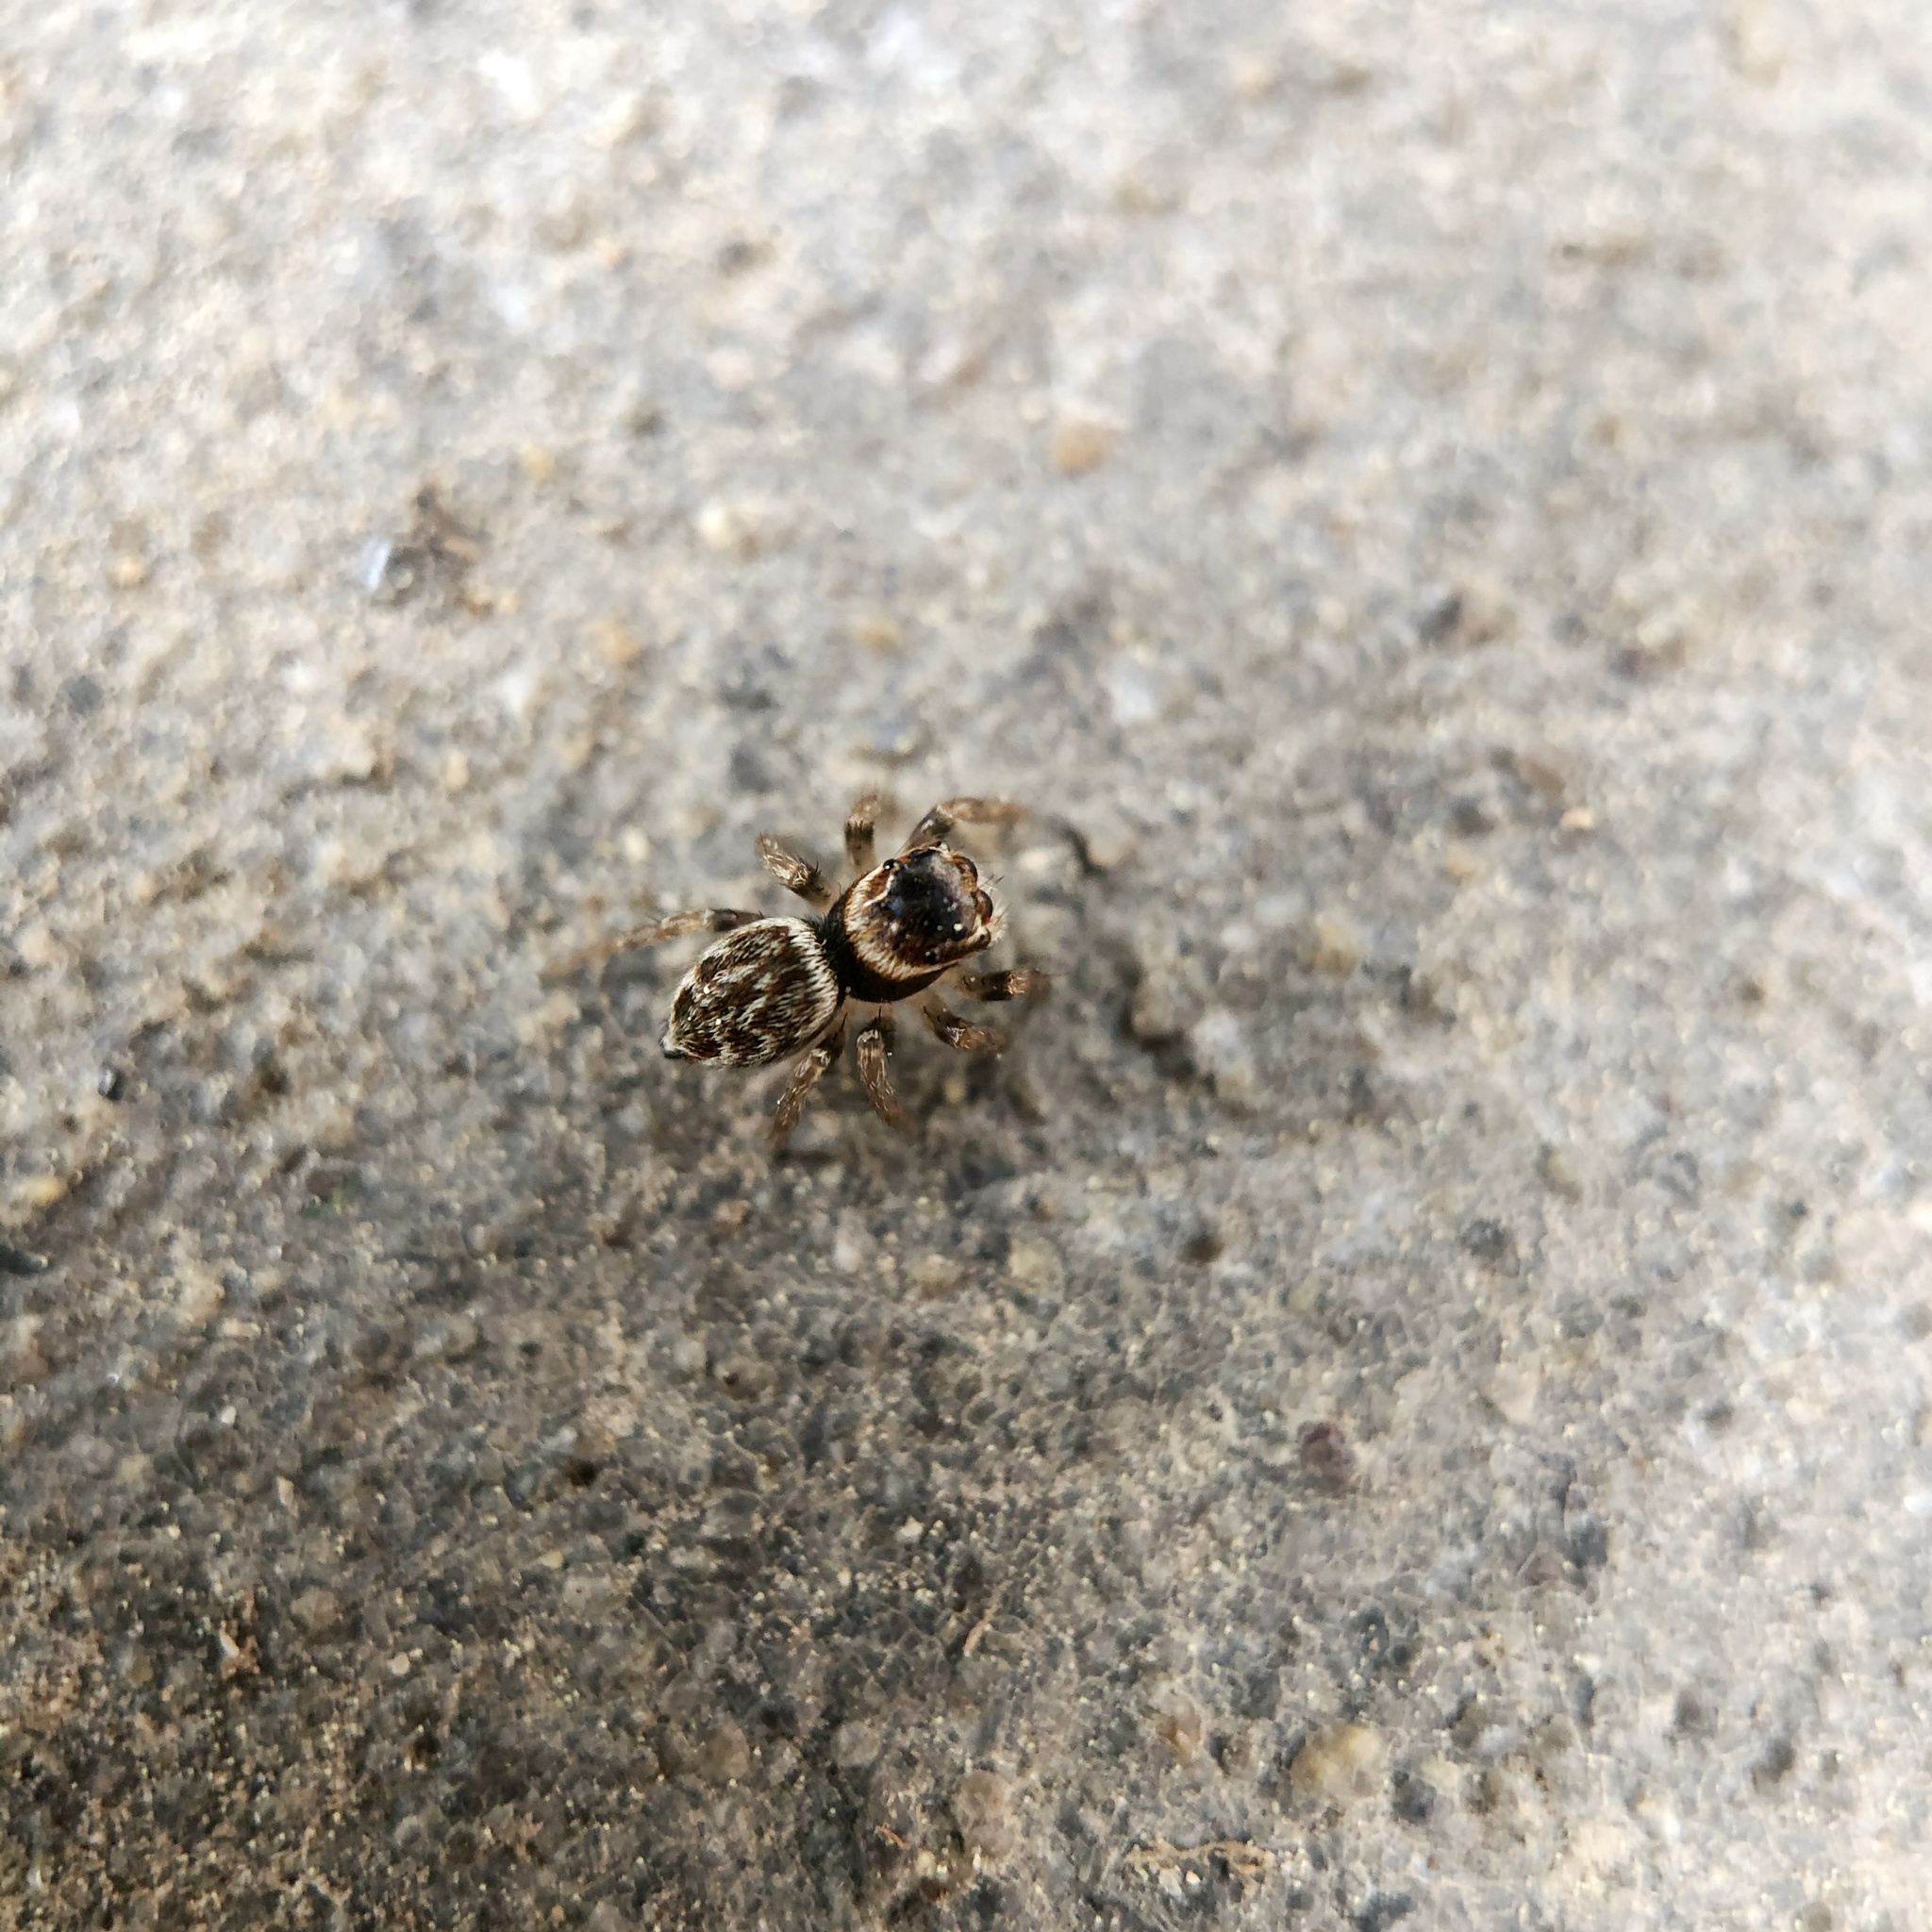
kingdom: Animalia
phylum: Arthropoda
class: Arachnida
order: Araneae
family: Salticidae
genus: Maratus
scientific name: Maratus griseus
